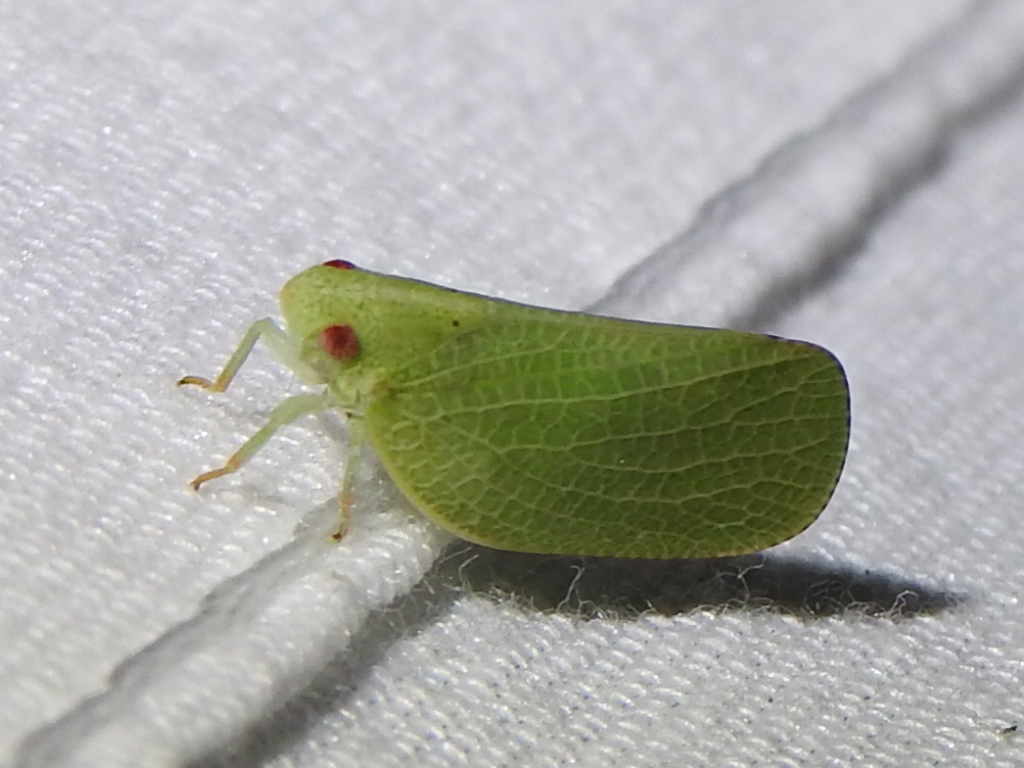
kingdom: Animalia
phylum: Arthropoda
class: Insecta
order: Hemiptera
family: Acanaloniidae
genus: Acanalonia
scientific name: Acanalonia conica
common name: Green cone-headed planthopper
